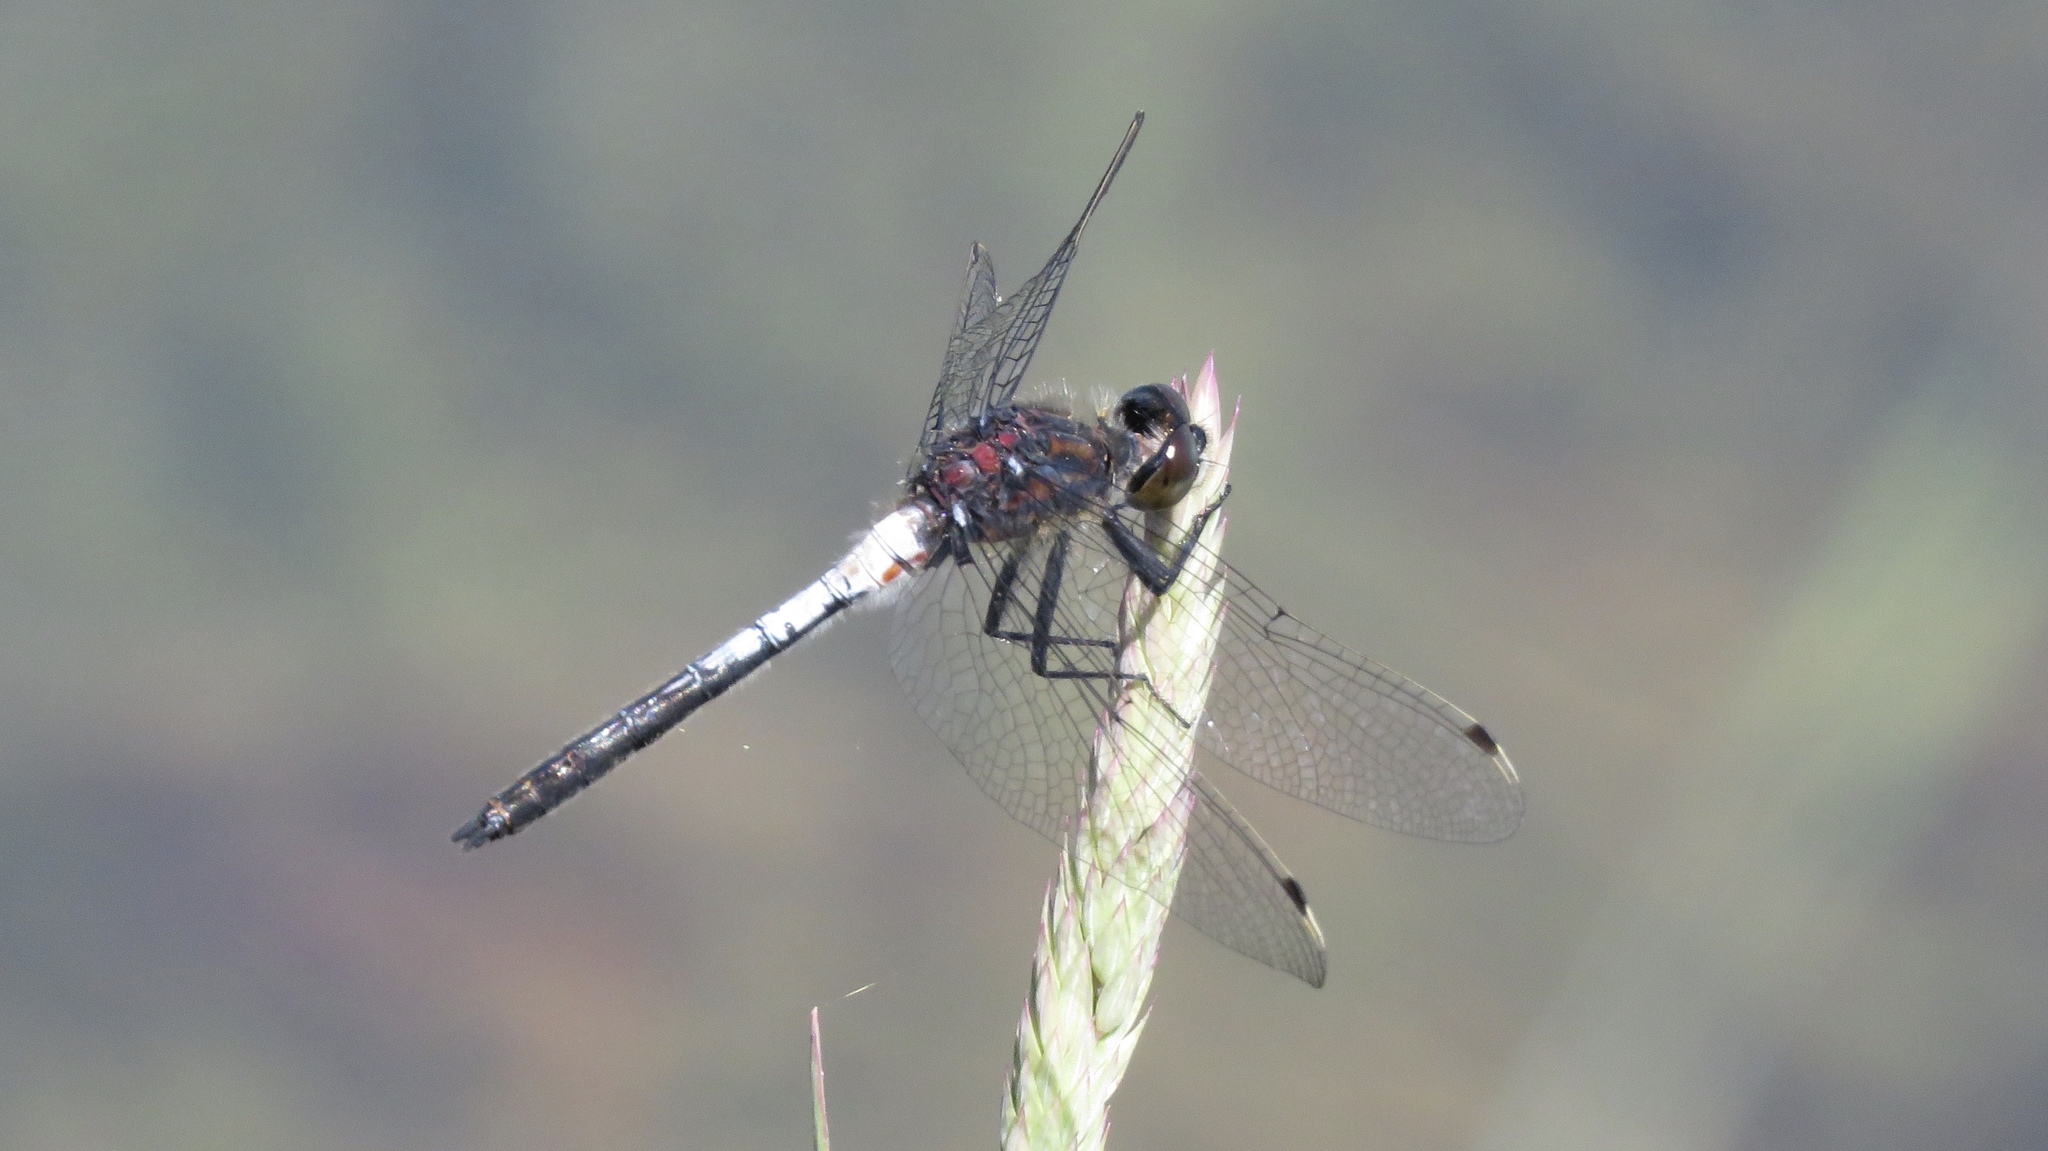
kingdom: Animalia
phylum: Arthropoda
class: Insecta
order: Odonata
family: Libellulidae
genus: Leucorrhinia
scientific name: Leucorrhinia proxima
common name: Belted whiteface
